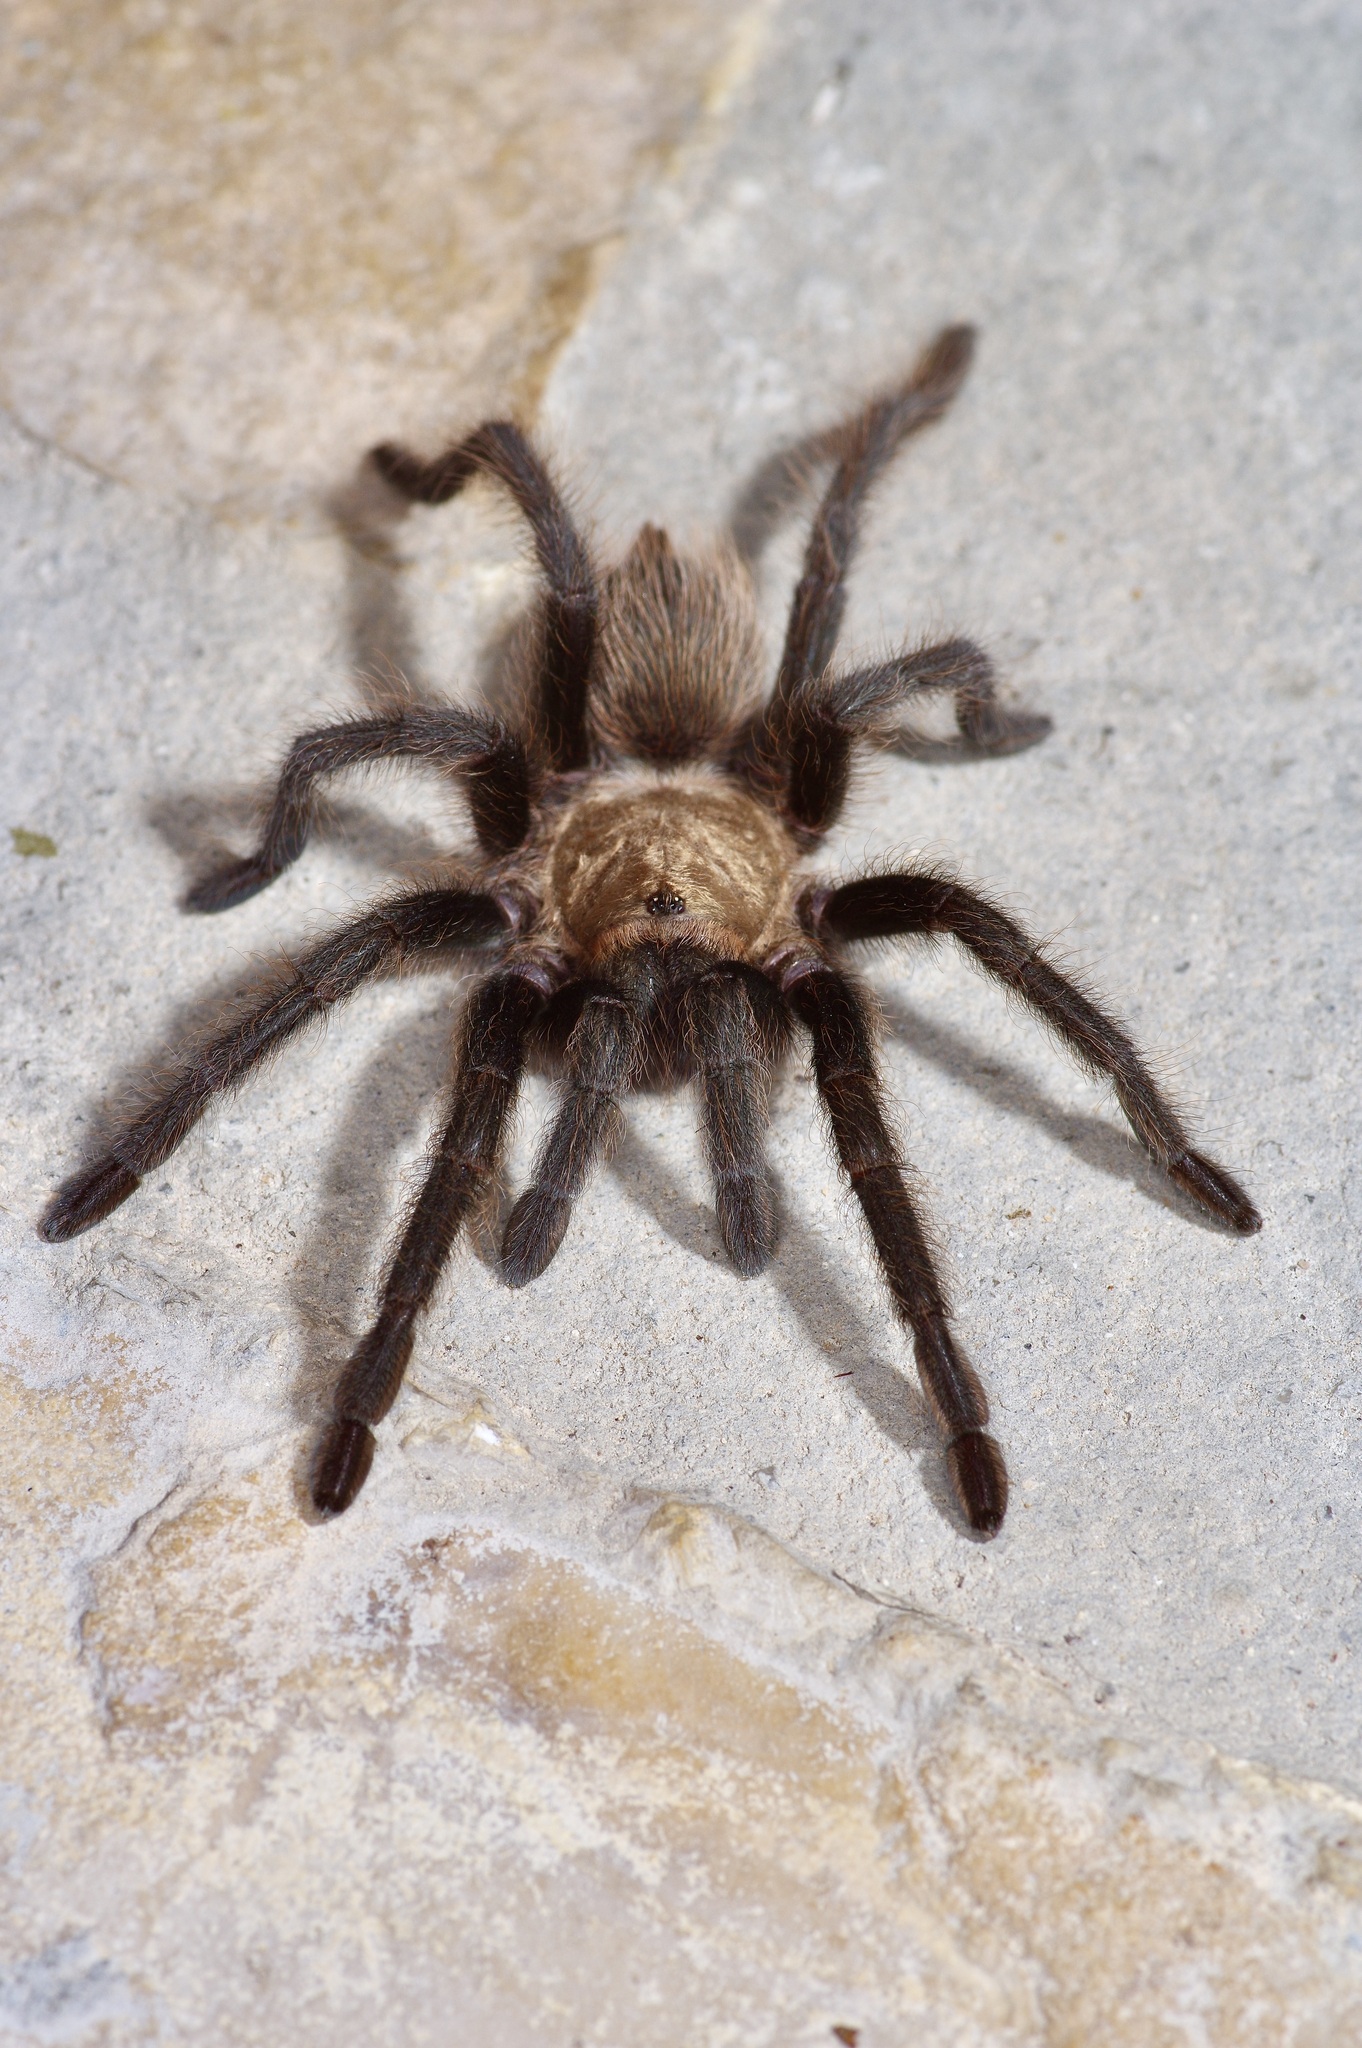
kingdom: Animalia
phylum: Arthropoda
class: Arachnida
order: Araneae
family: Theraphosidae
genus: Aphonopelma
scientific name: Aphonopelma hentzi
